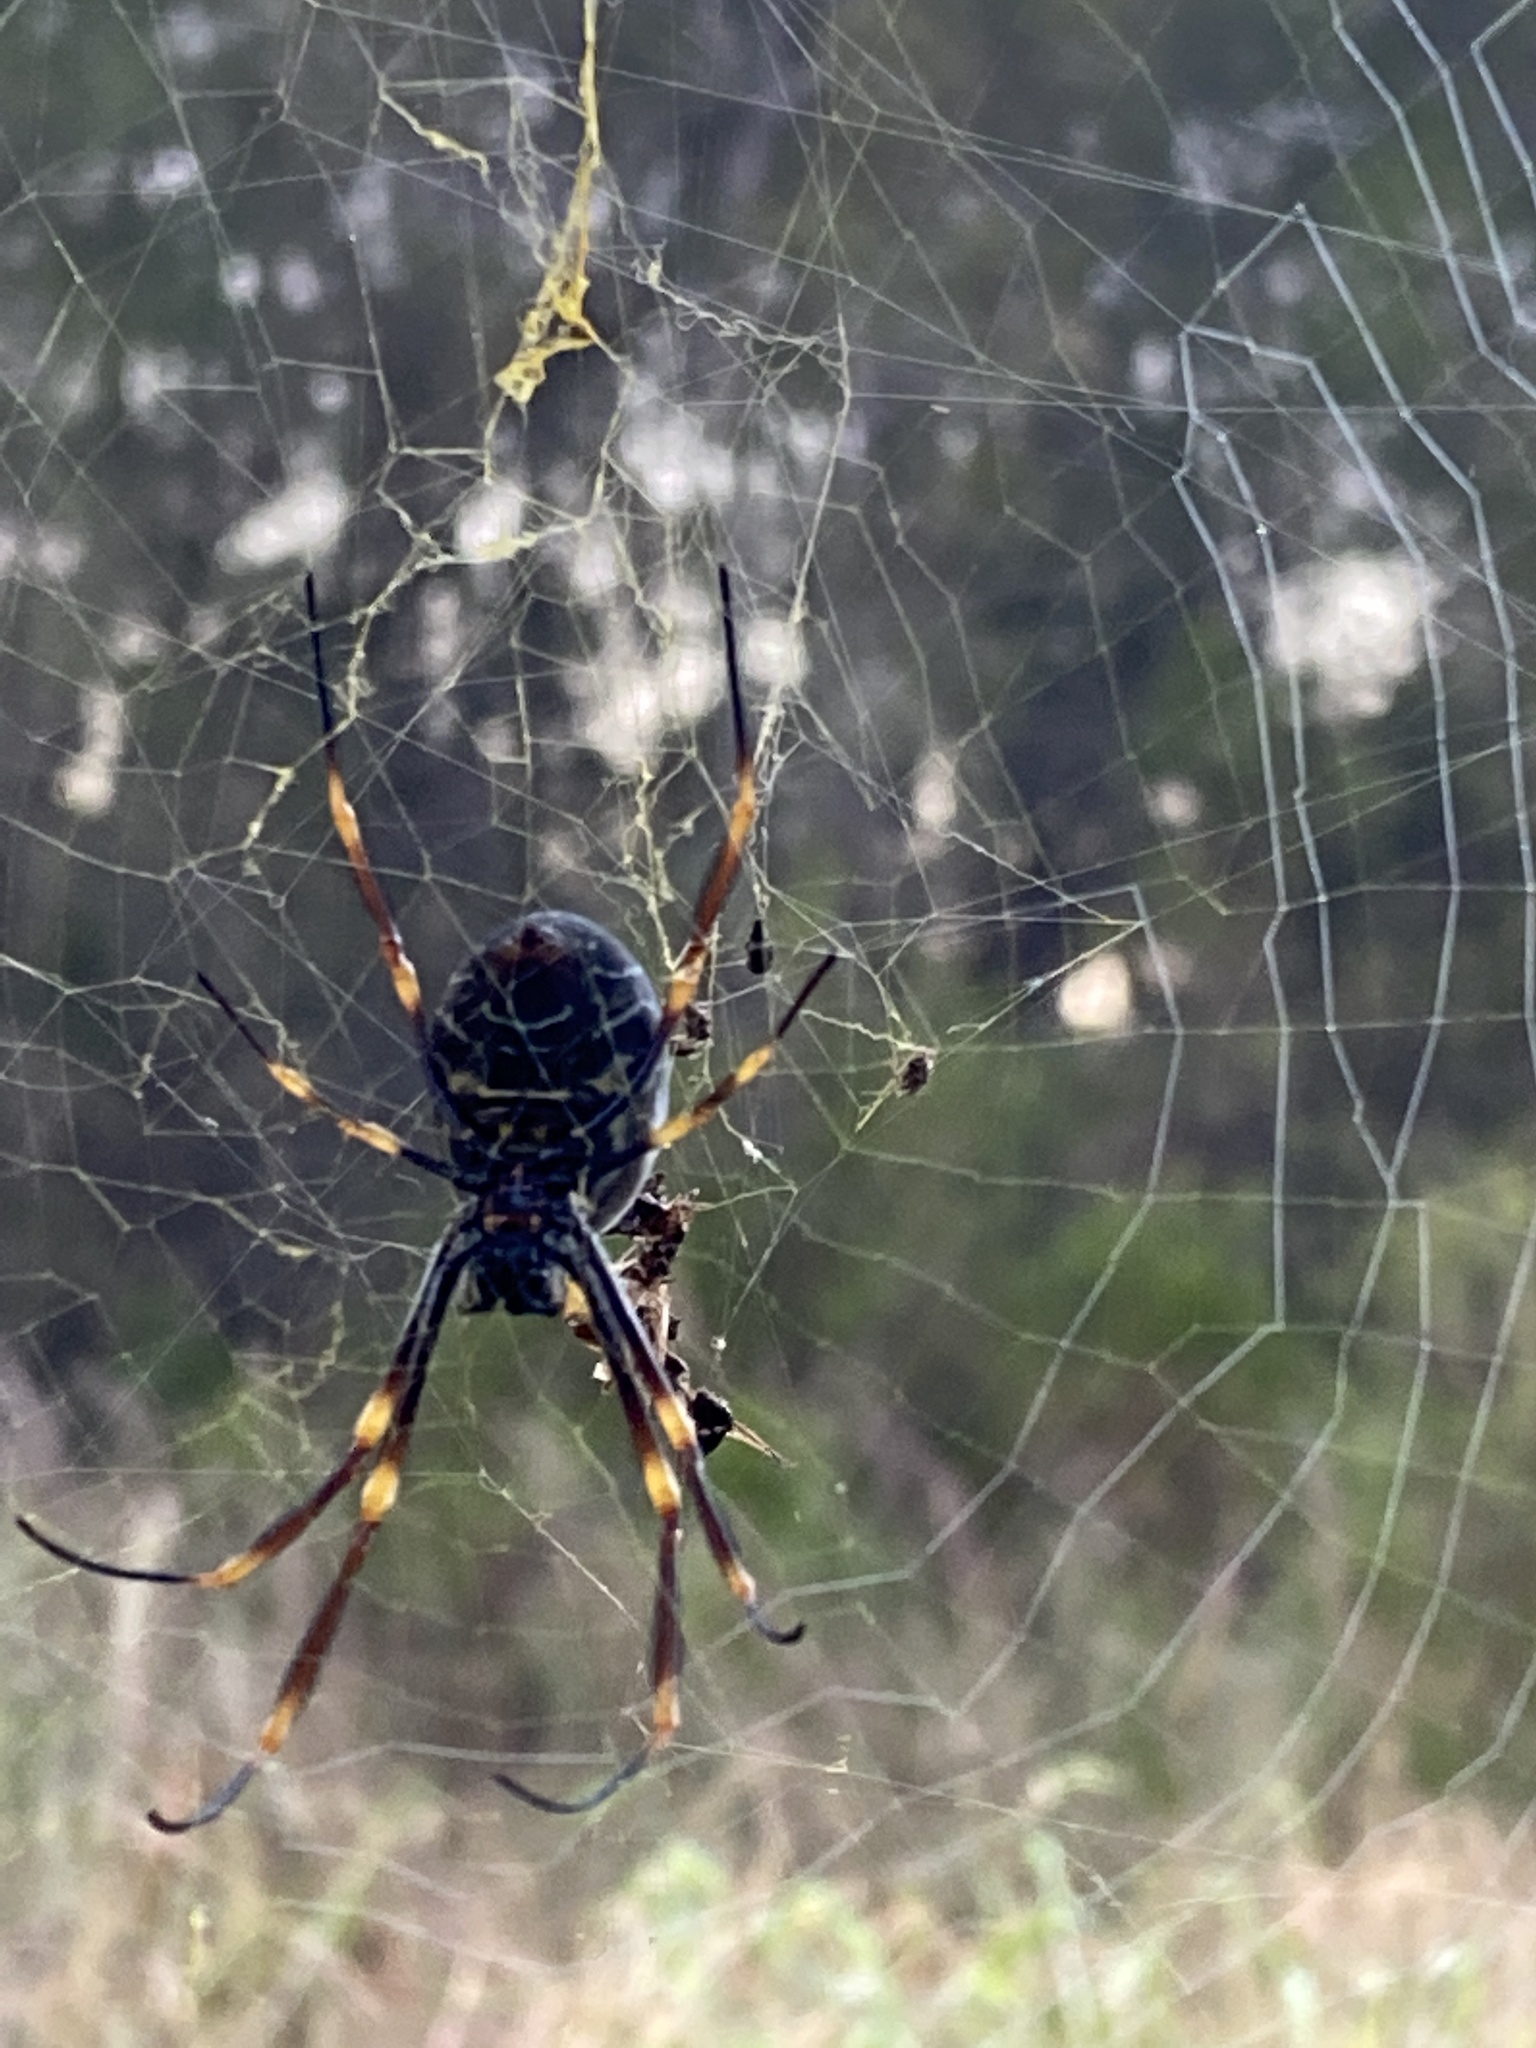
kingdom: Animalia
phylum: Arthropoda
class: Arachnida
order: Araneae
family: Araneidae
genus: Trichonephila
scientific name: Trichonephila plumipes
